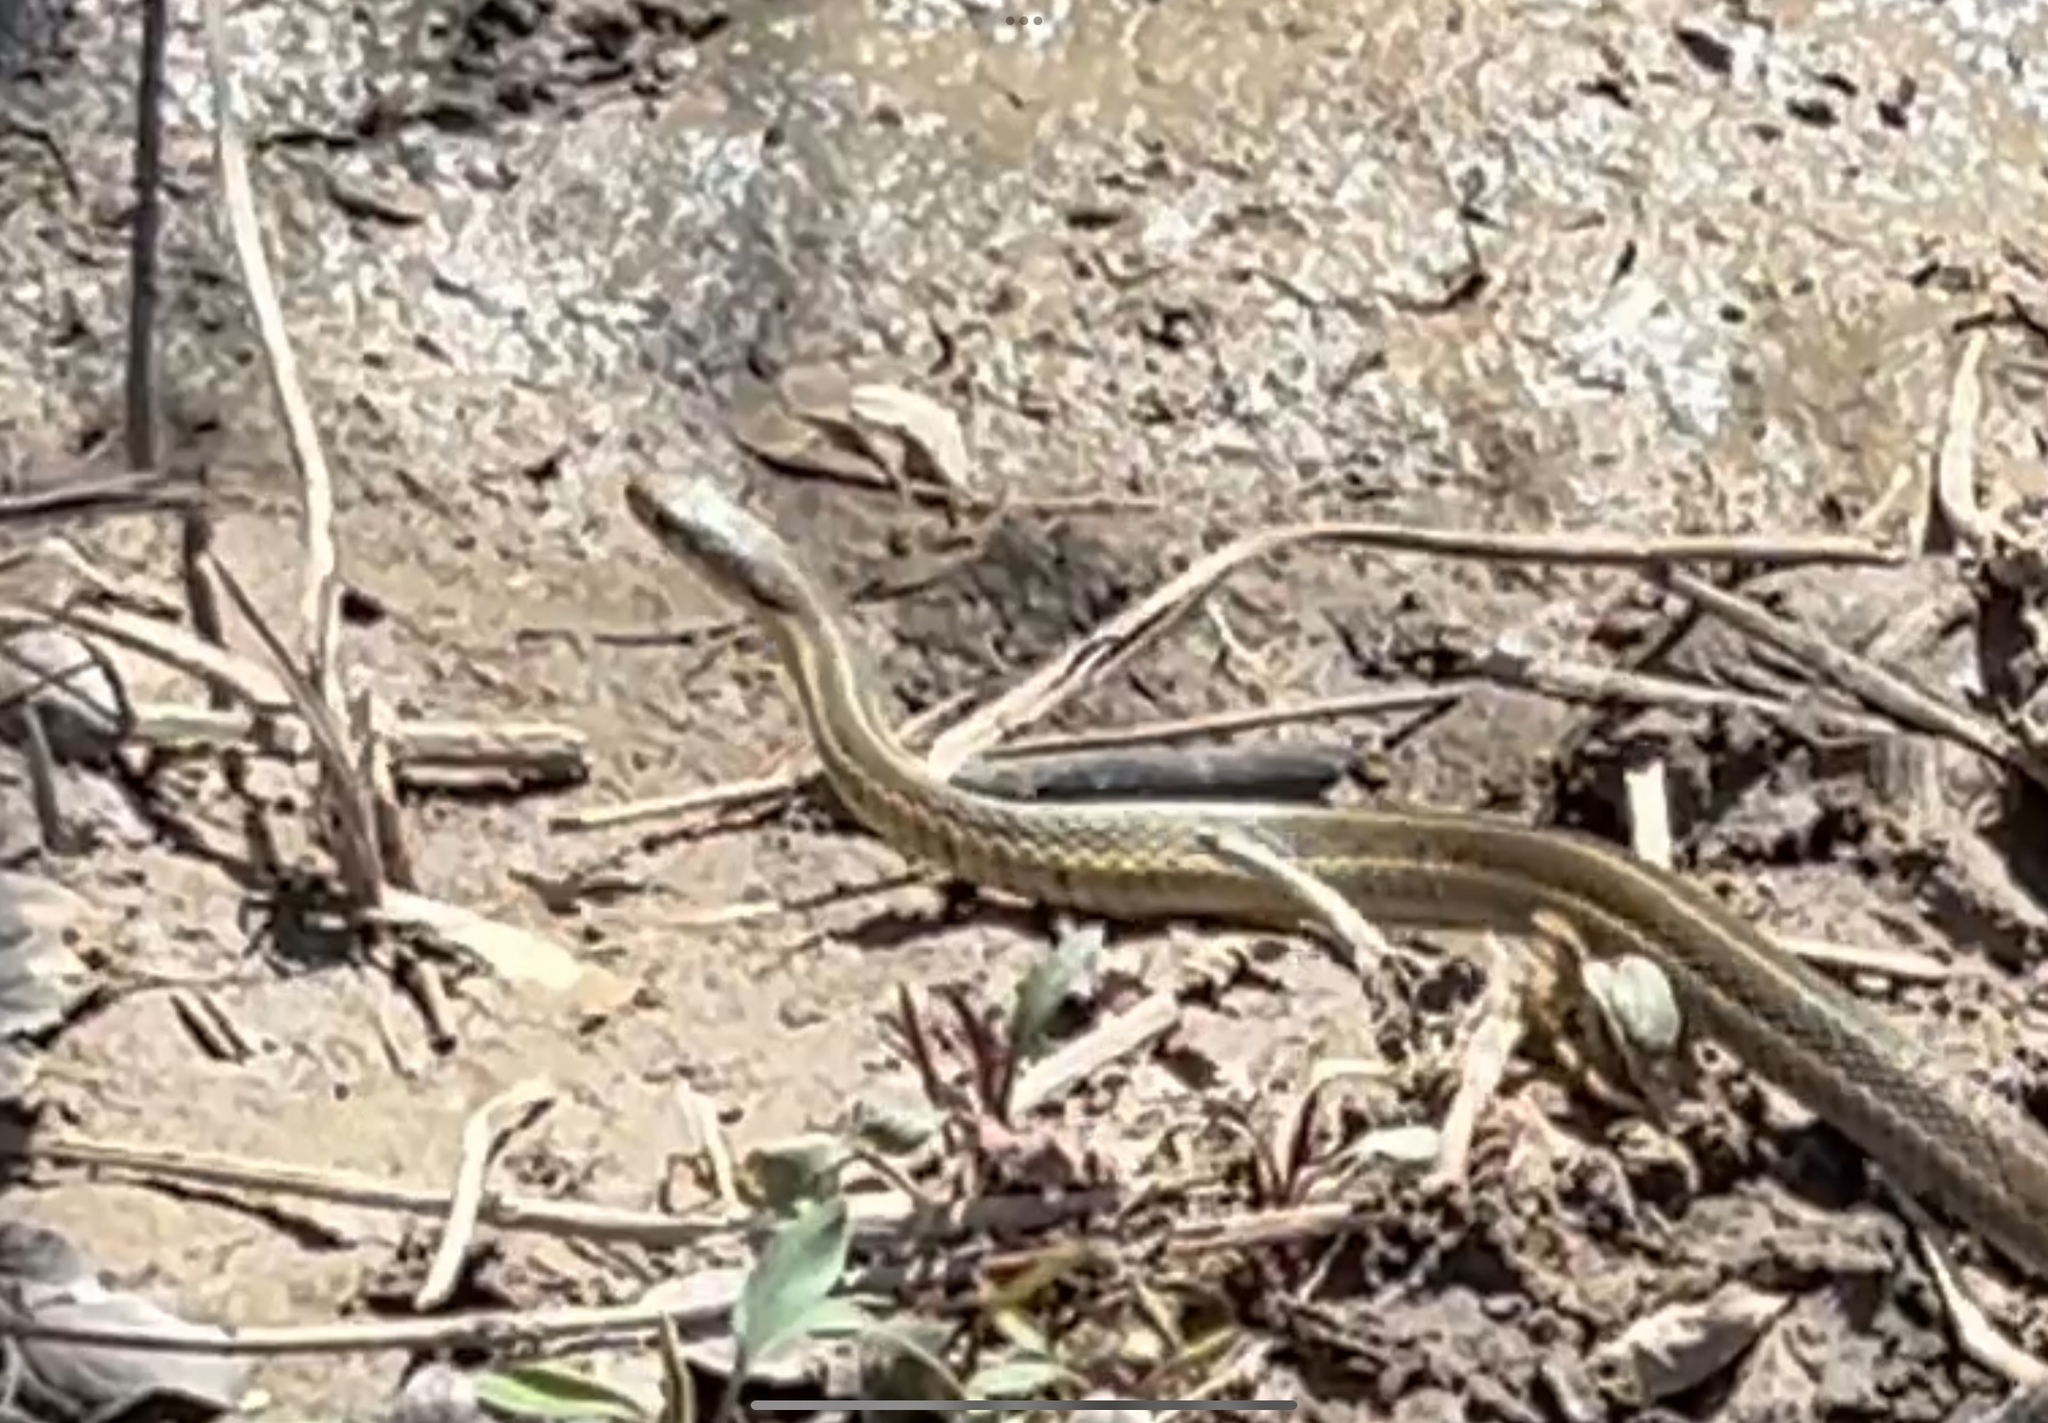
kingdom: Animalia
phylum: Chordata
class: Squamata
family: Colubridae
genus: Thamnophis
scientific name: Thamnophis sirtalis
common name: Common garter snake
